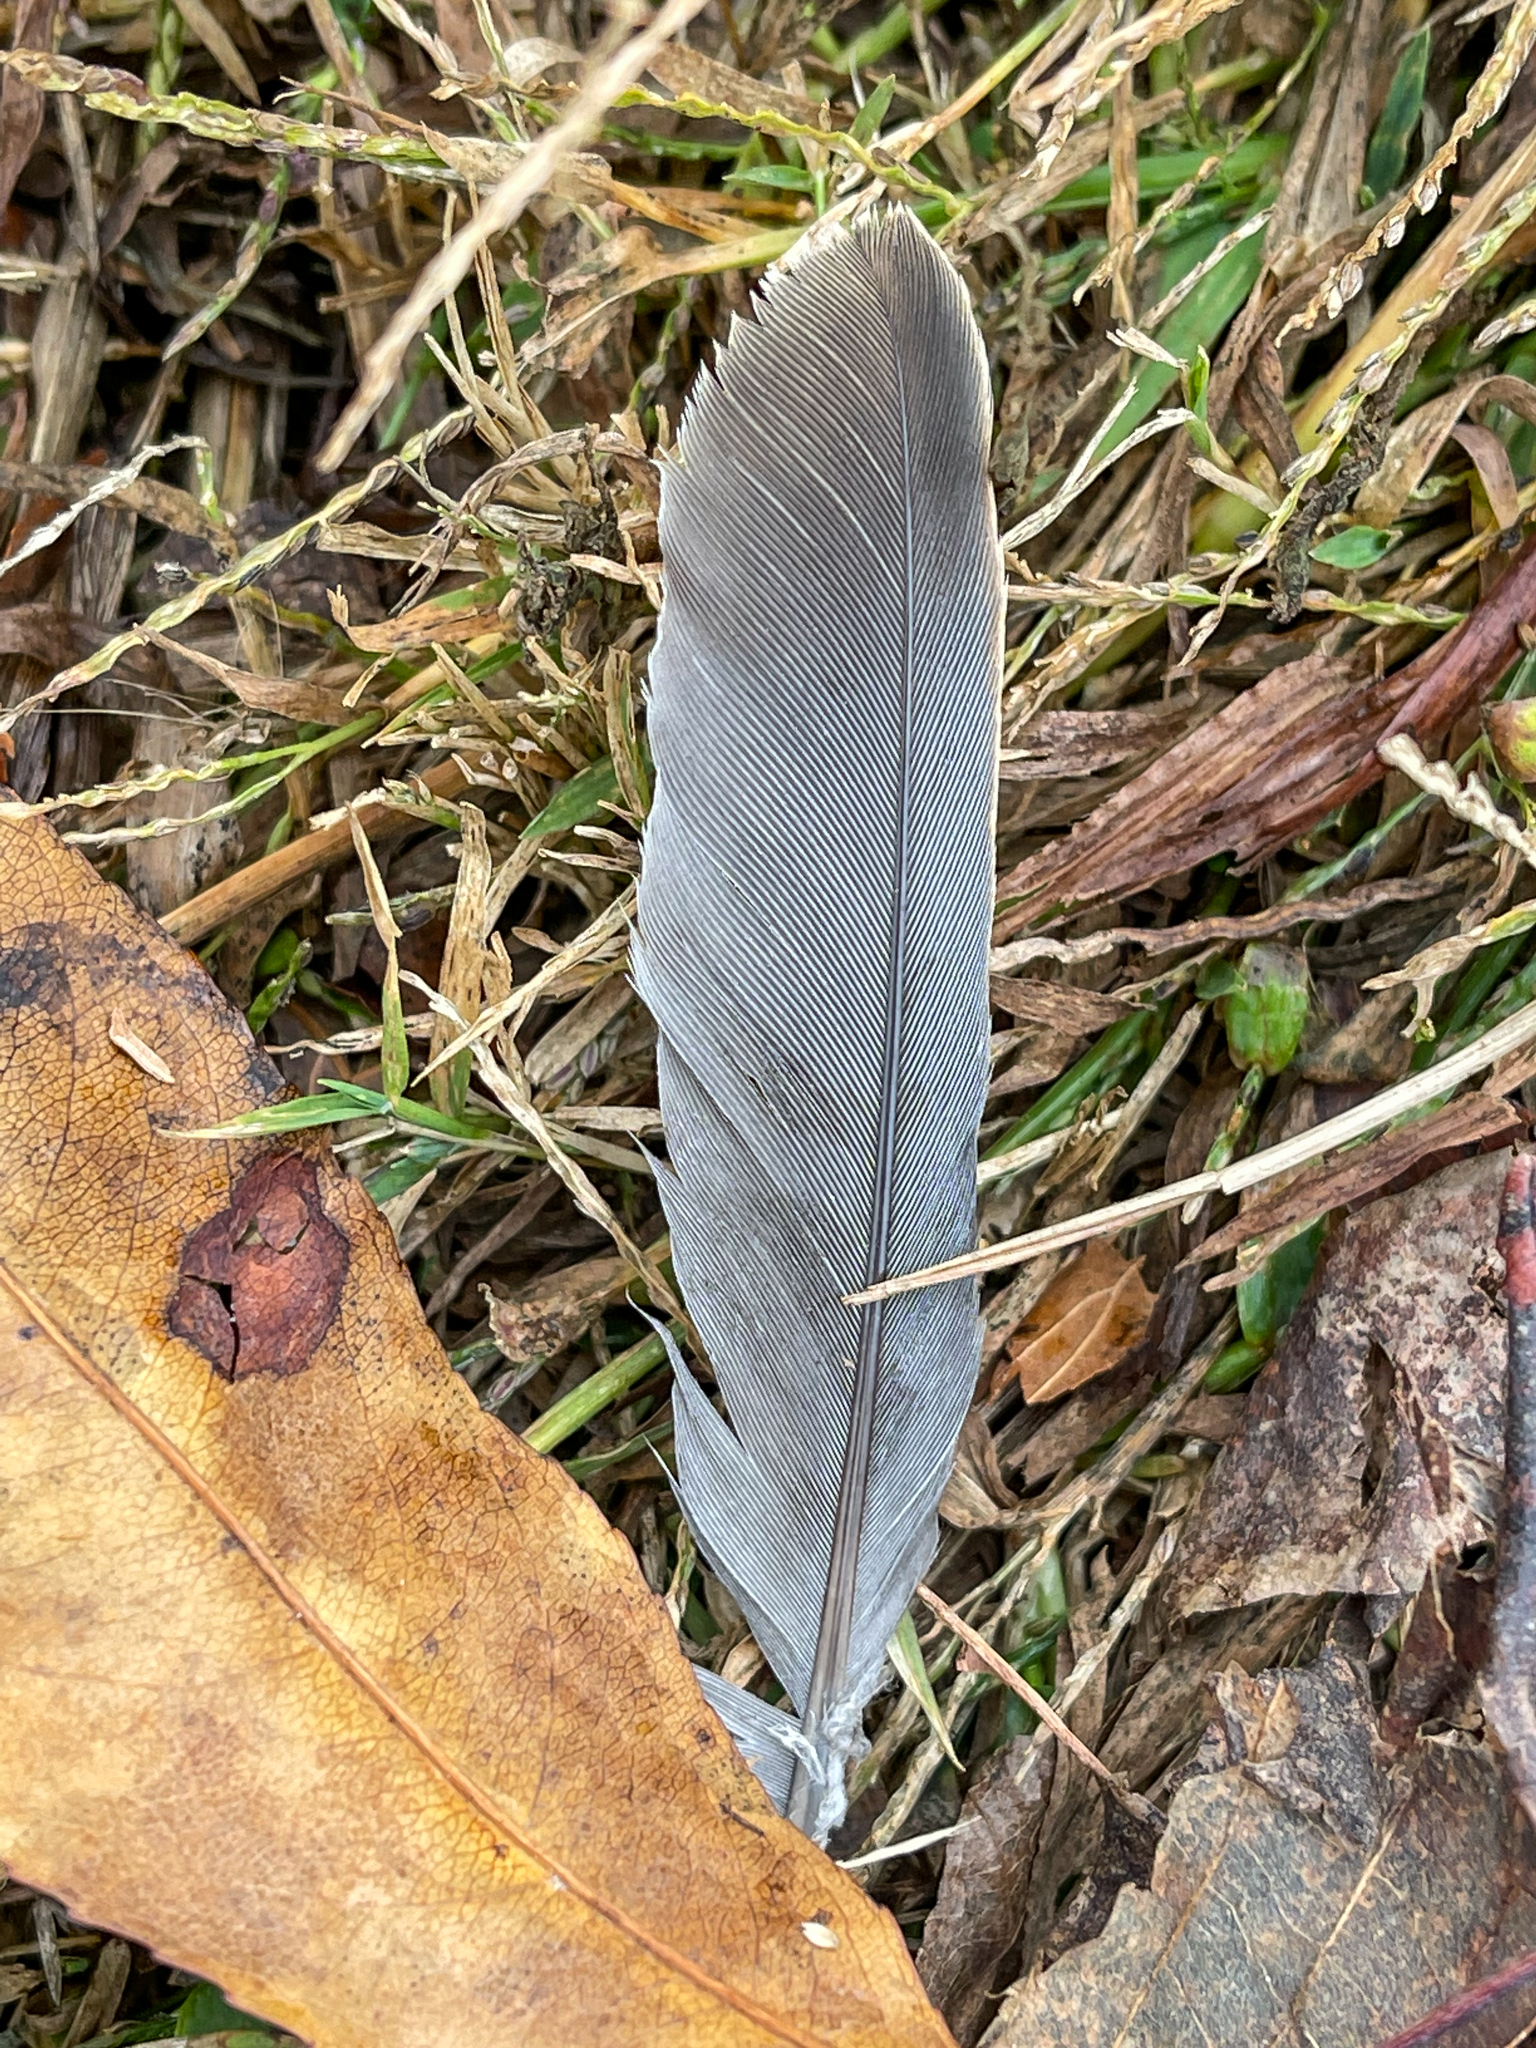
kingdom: Animalia
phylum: Chordata
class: Aves
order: Columbiformes
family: Columbidae
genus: Zenaida
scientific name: Zenaida macroura
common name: Mourning dove
